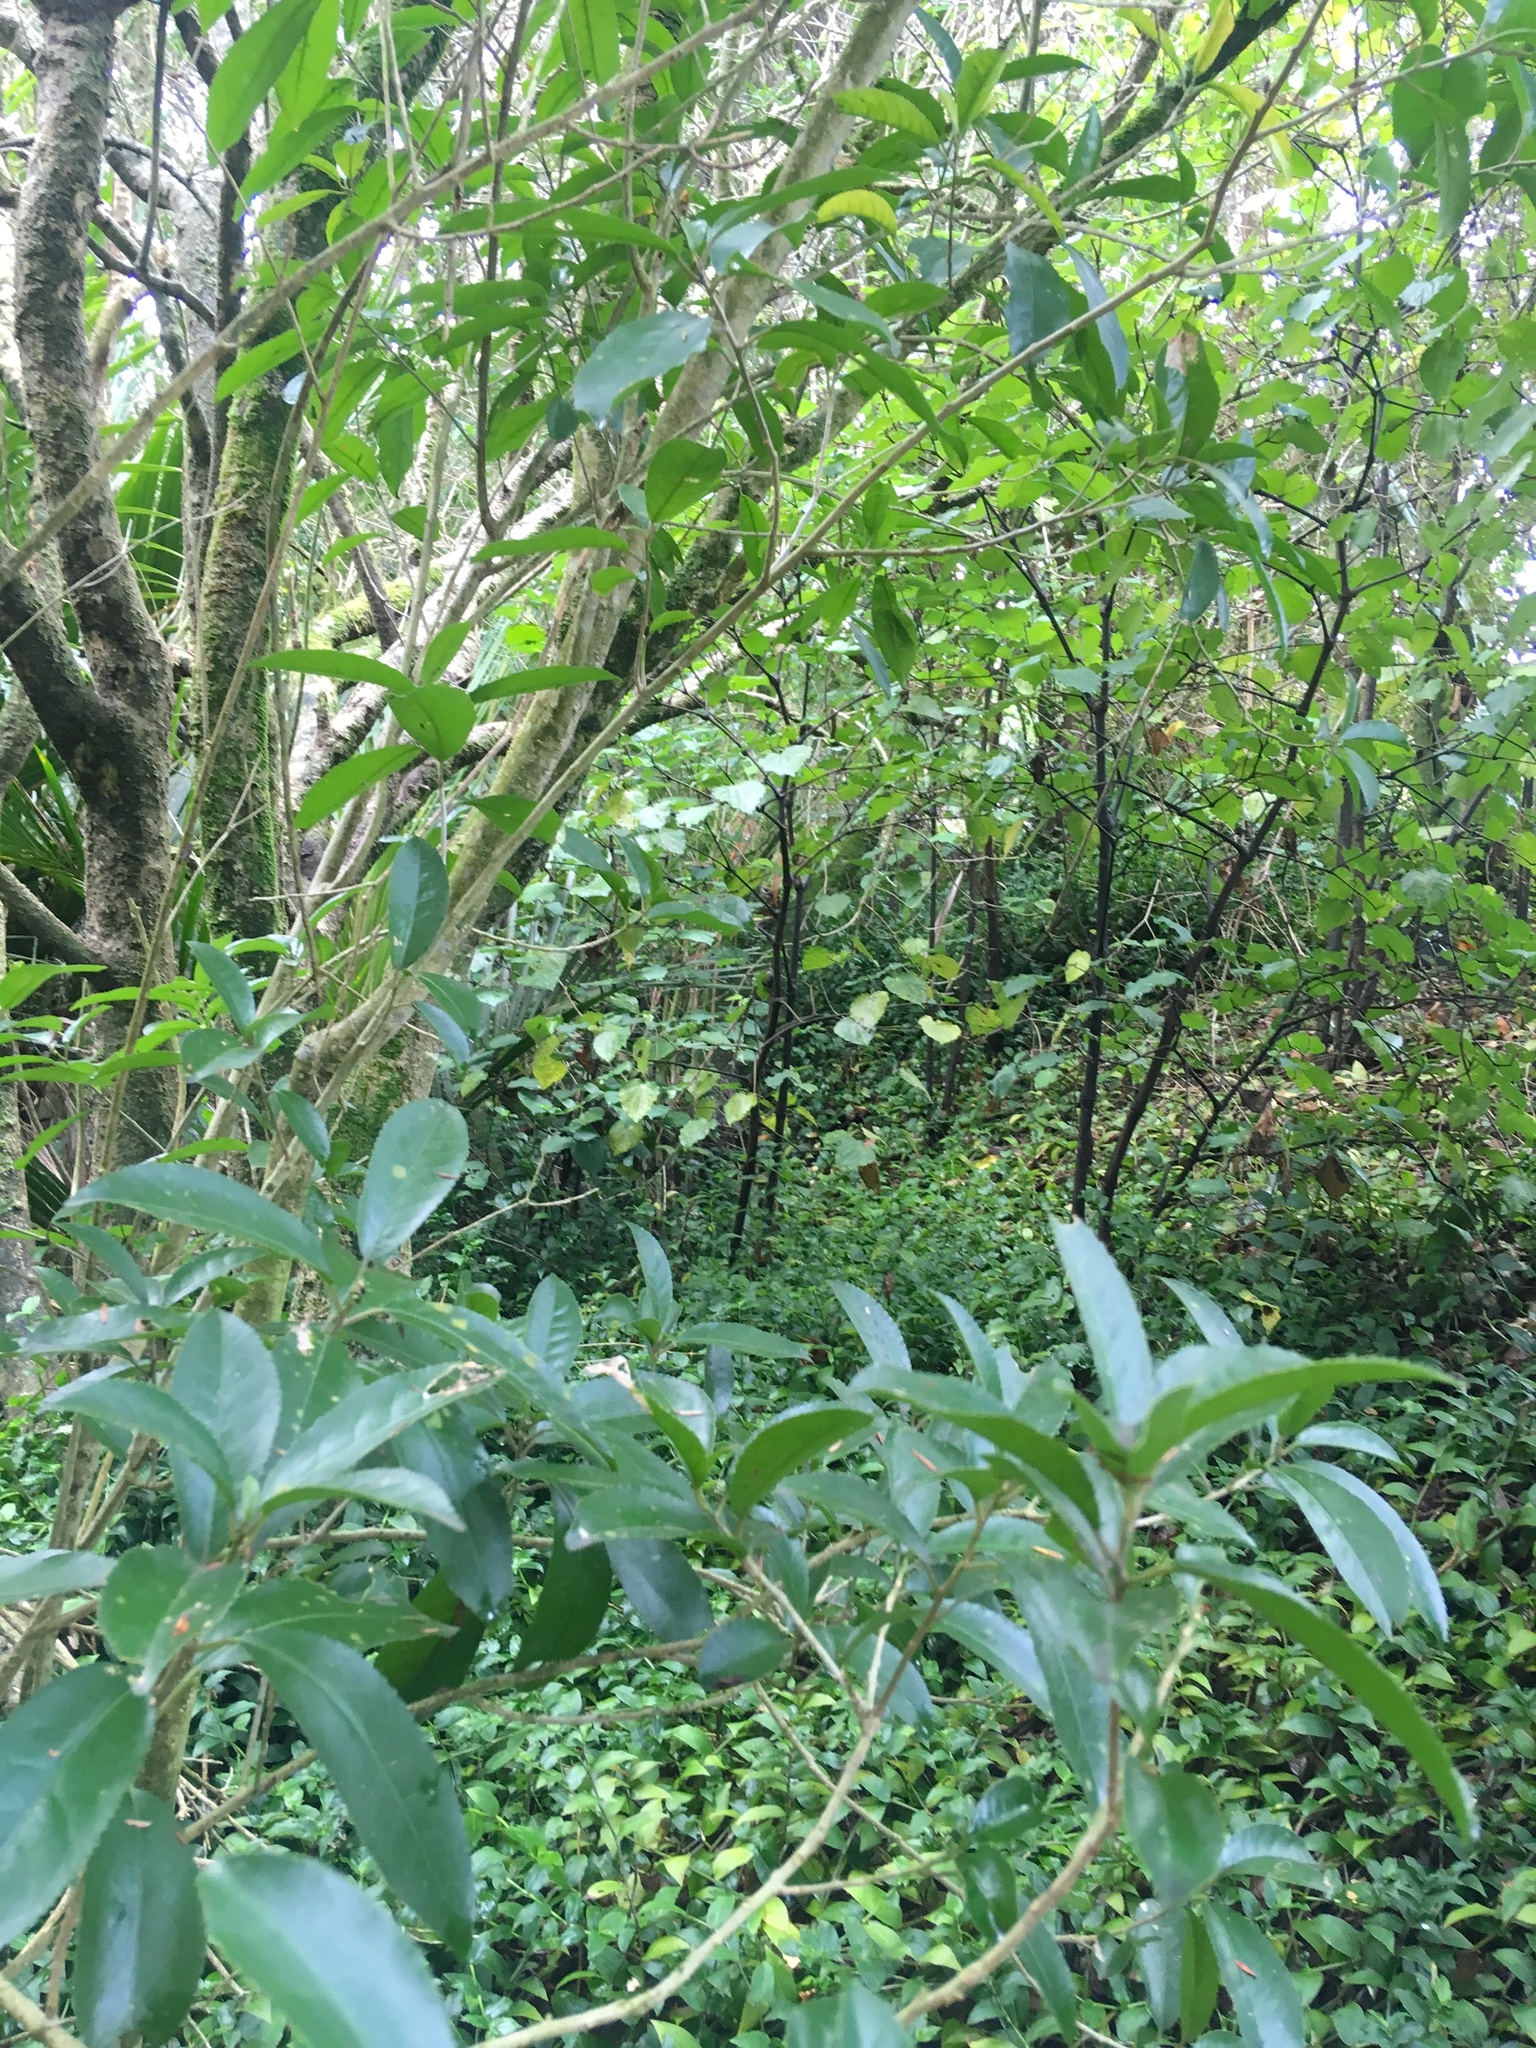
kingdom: Plantae
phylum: Tracheophyta
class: Magnoliopsida
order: Malpighiales
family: Violaceae
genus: Melicytus
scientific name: Melicytus ramiflorus
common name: Mahoe
